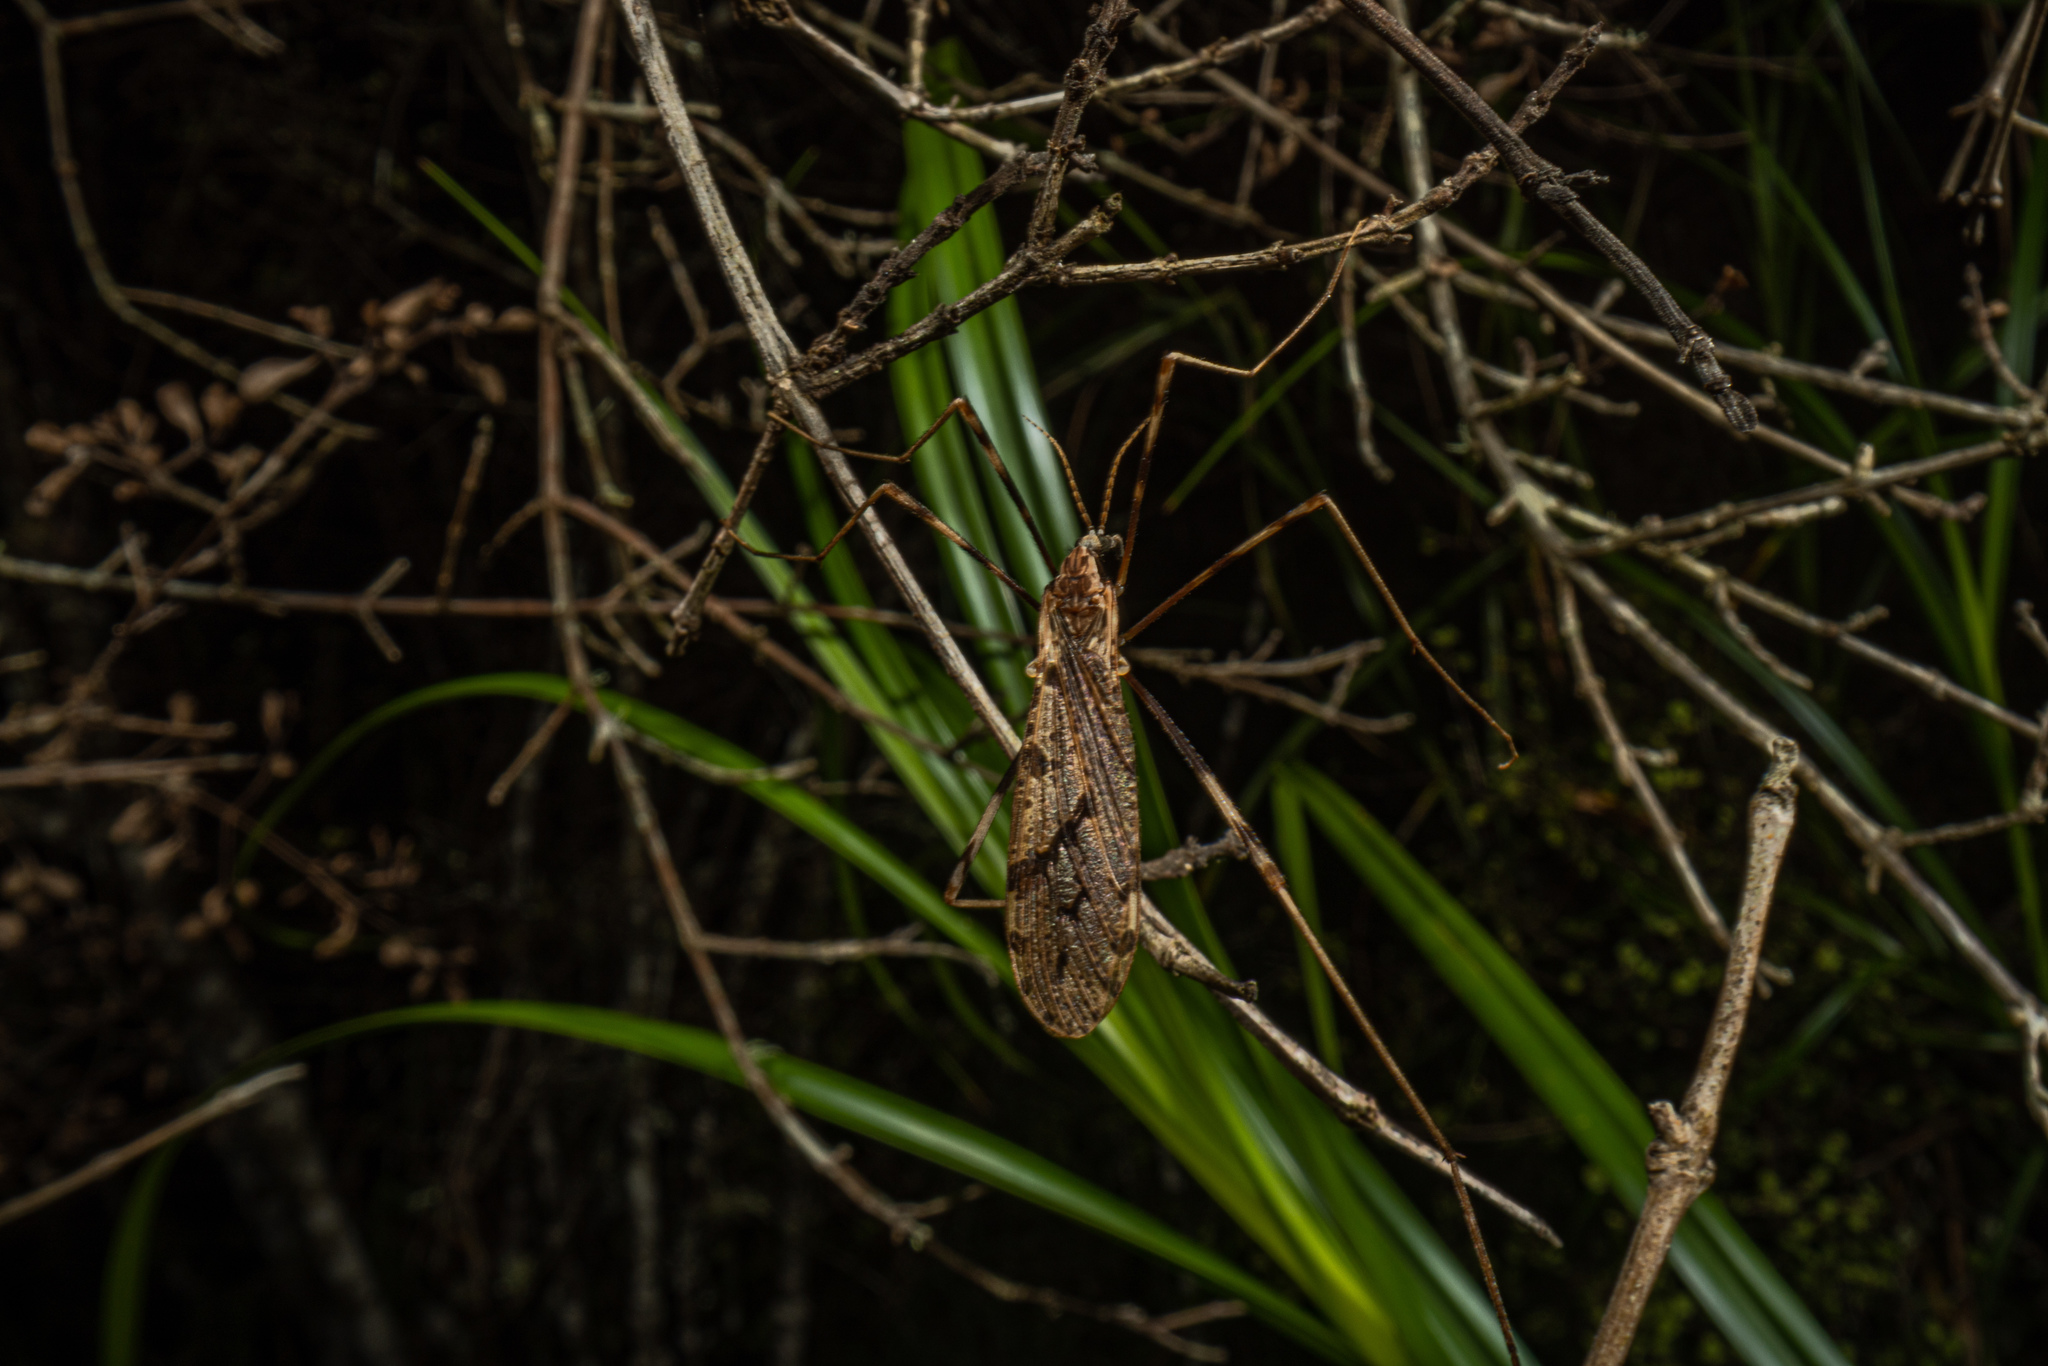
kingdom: Animalia
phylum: Arthropoda
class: Insecta
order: Diptera
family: Limoniidae
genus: Rhamphophila
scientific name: Rhamphophila sinistra
